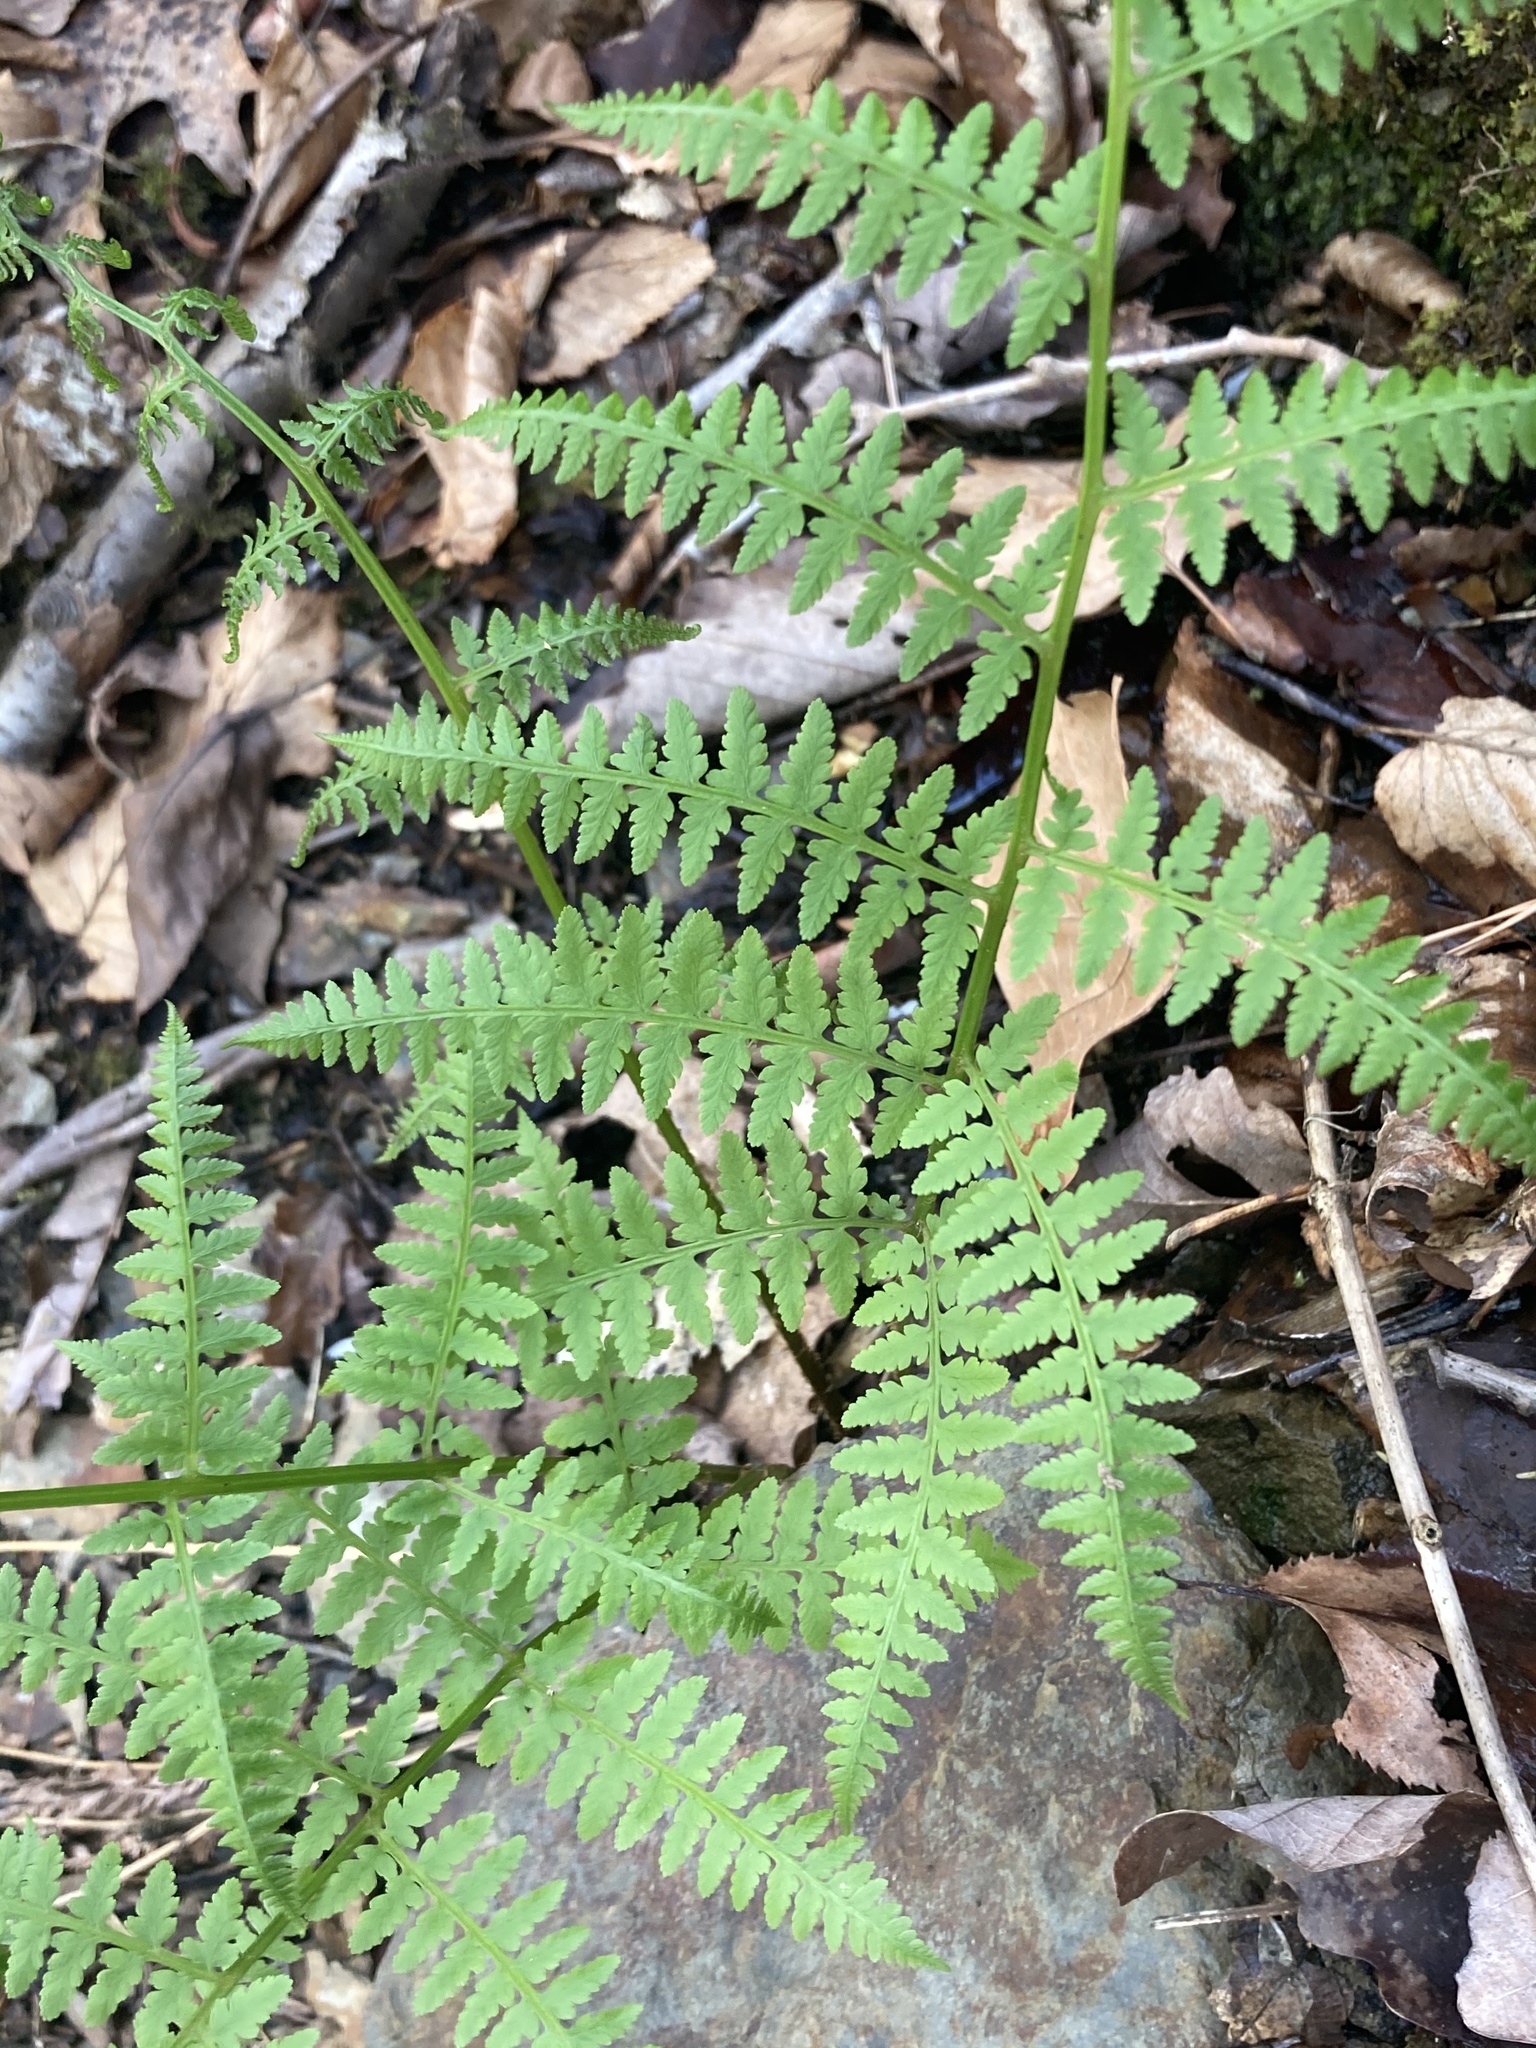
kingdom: Plantae
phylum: Tracheophyta
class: Polypodiopsida
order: Polypodiales
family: Athyriaceae
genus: Athyrium
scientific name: Athyrium asplenioides
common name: Southern lady fern
